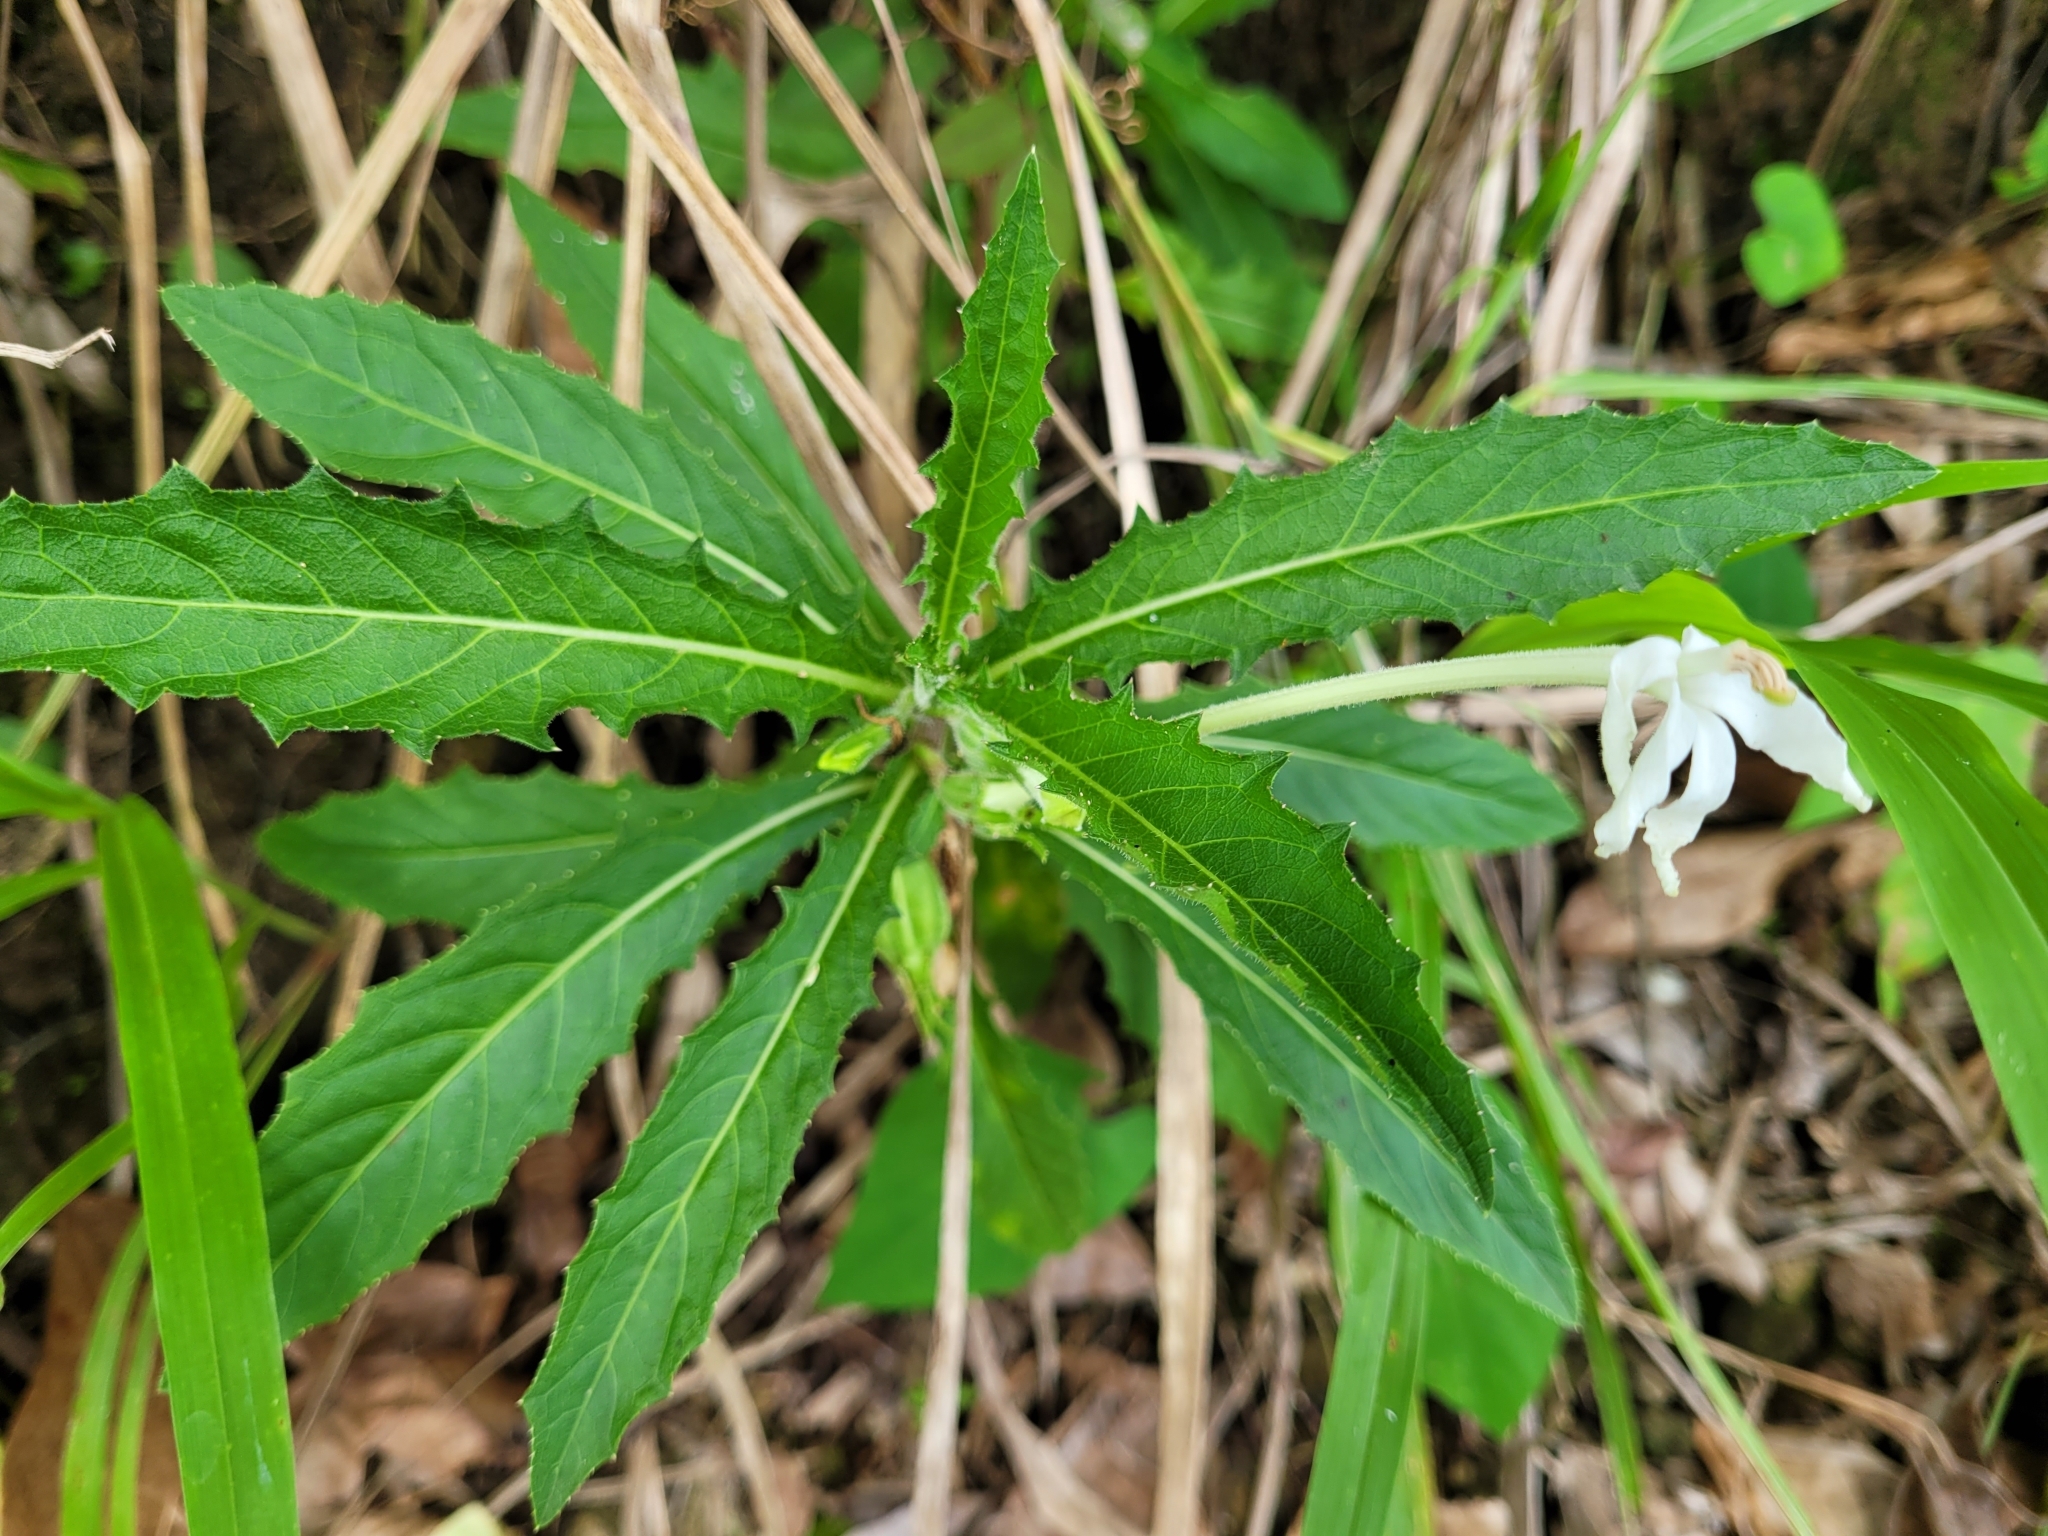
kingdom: Plantae
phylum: Tracheophyta
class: Magnoliopsida
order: Asterales
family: Campanulaceae
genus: Hippobroma
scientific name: Hippobroma longiflora
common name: Madamfate
